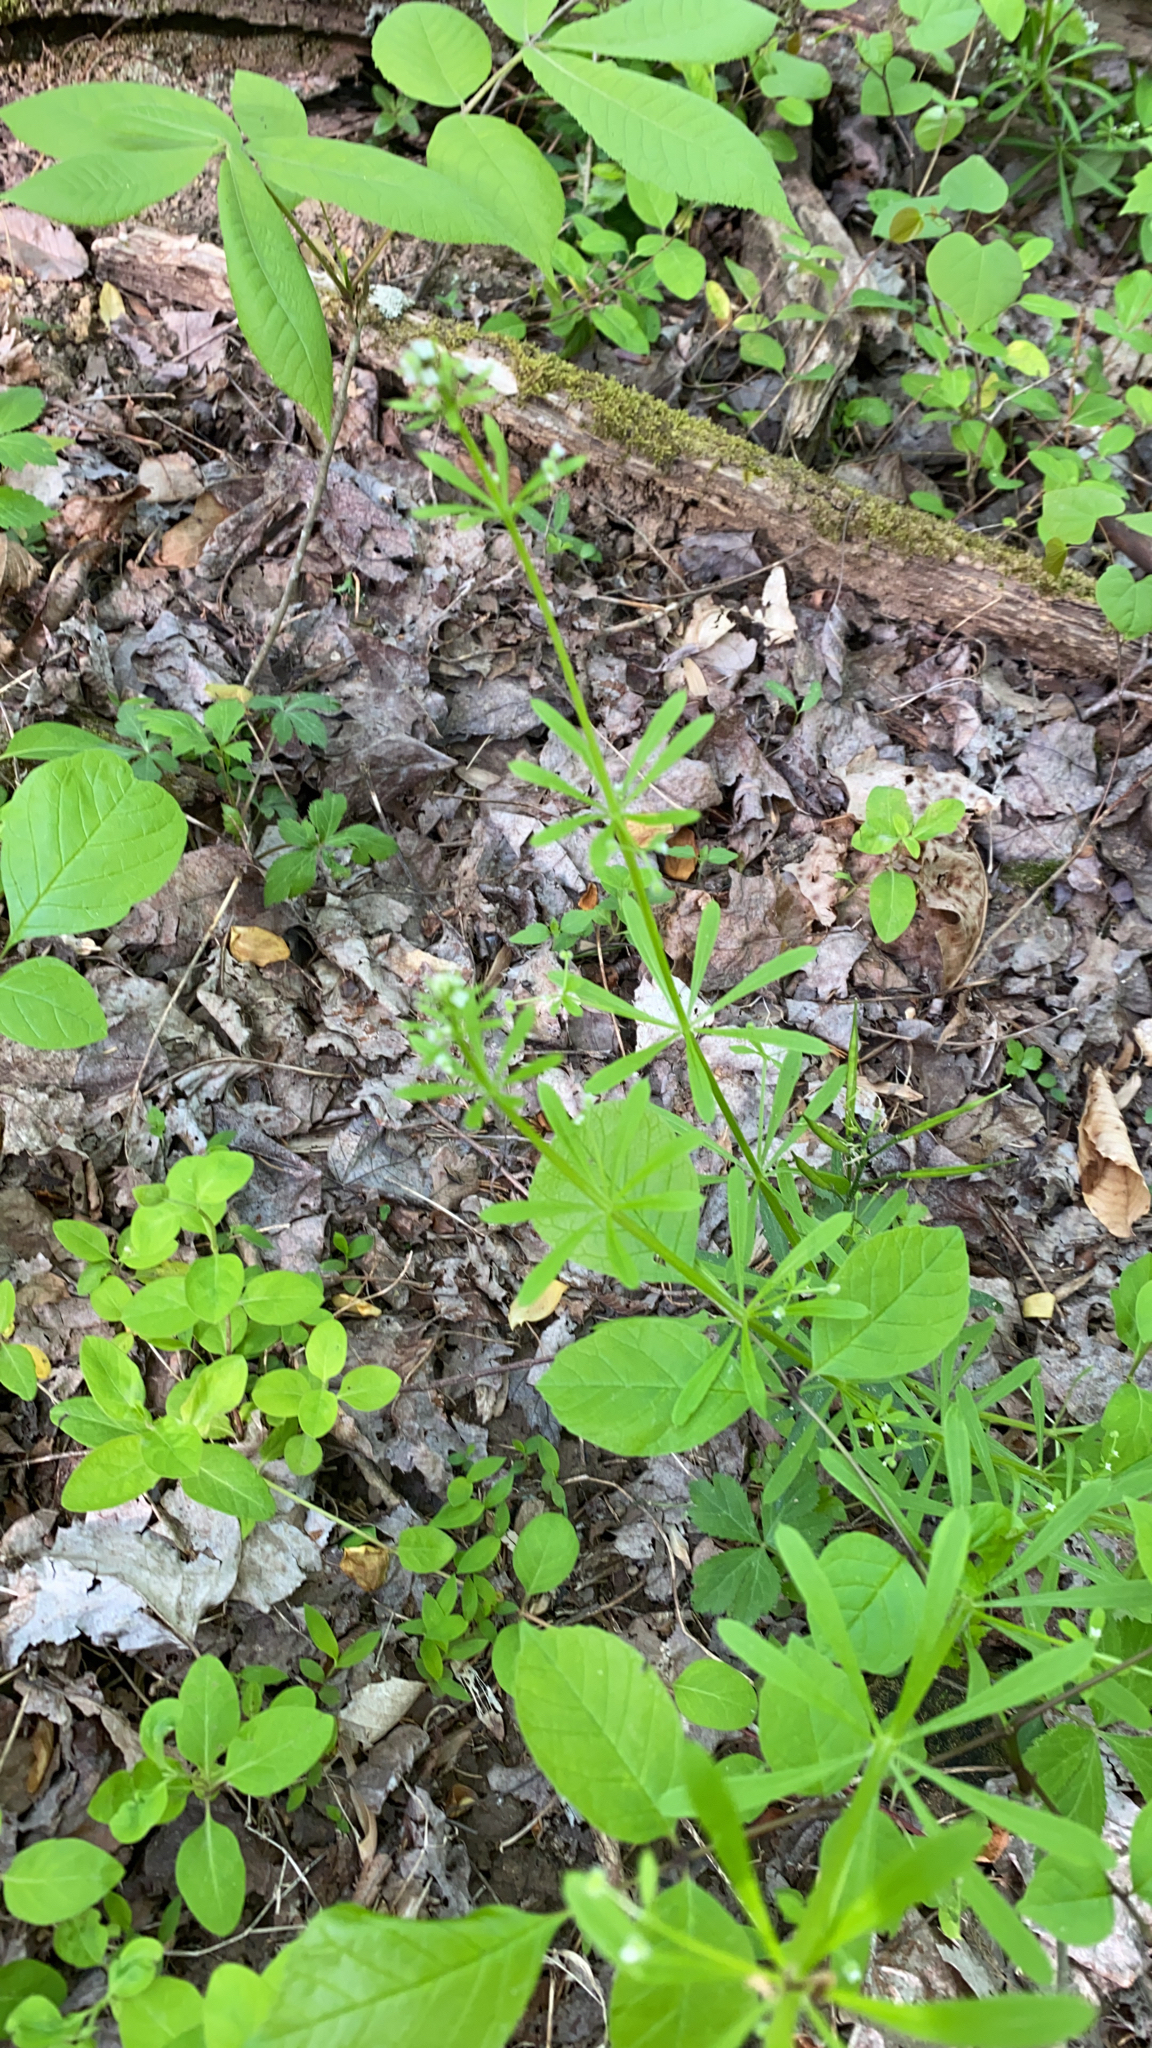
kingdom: Plantae
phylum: Tracheophyta
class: Magnoliopsida
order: Gentianales
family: Rubiaceae
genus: Galium
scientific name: Galium aparine
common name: Cleavers
